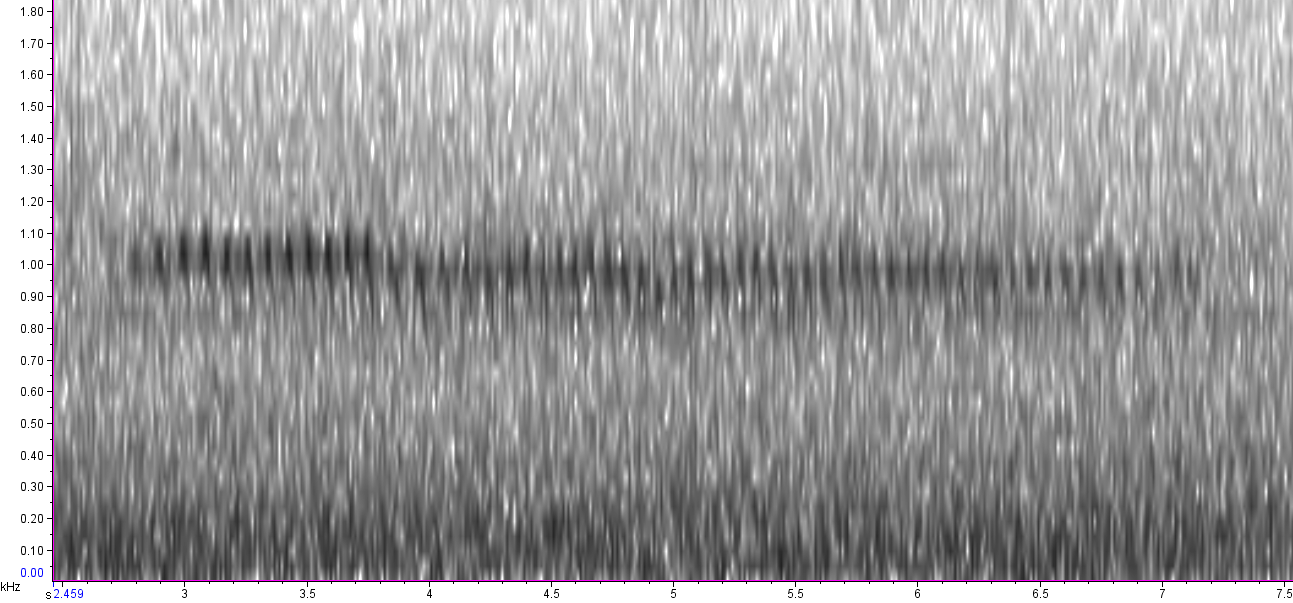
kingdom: Animalia
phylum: Chordata
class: Aves
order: Strigiformes
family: Strigidae
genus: Megascops
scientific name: Megascops asio
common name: Eastern screech-owl
